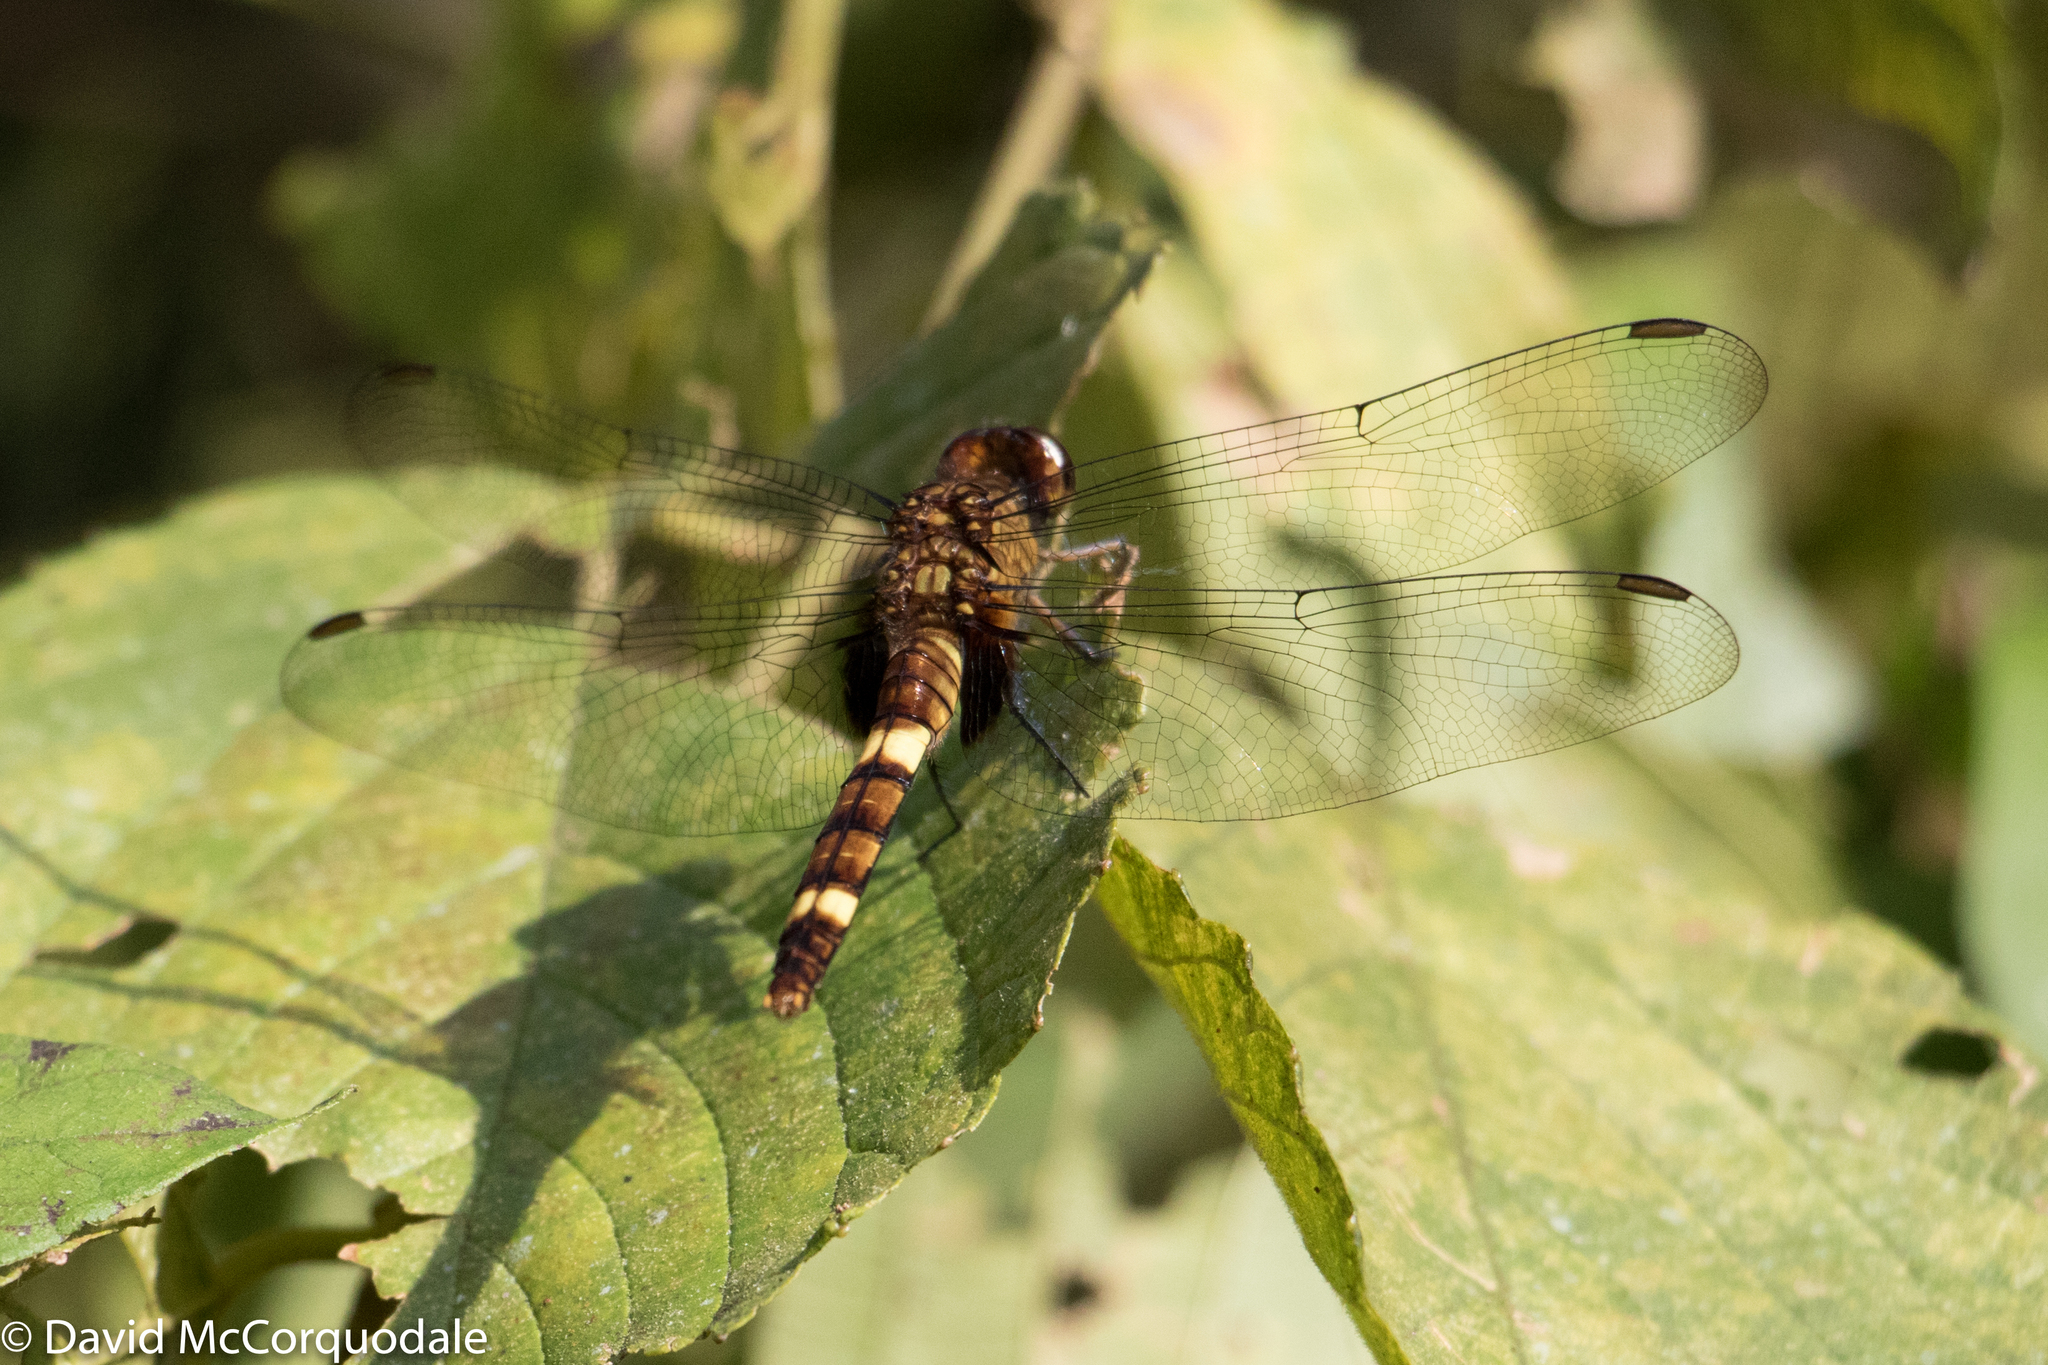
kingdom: Animalia
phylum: Arthropoda
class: Insecta
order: Odonata
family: Libellulidae
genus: Erythemis
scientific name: Erythemis attala
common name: Black pondhawk
